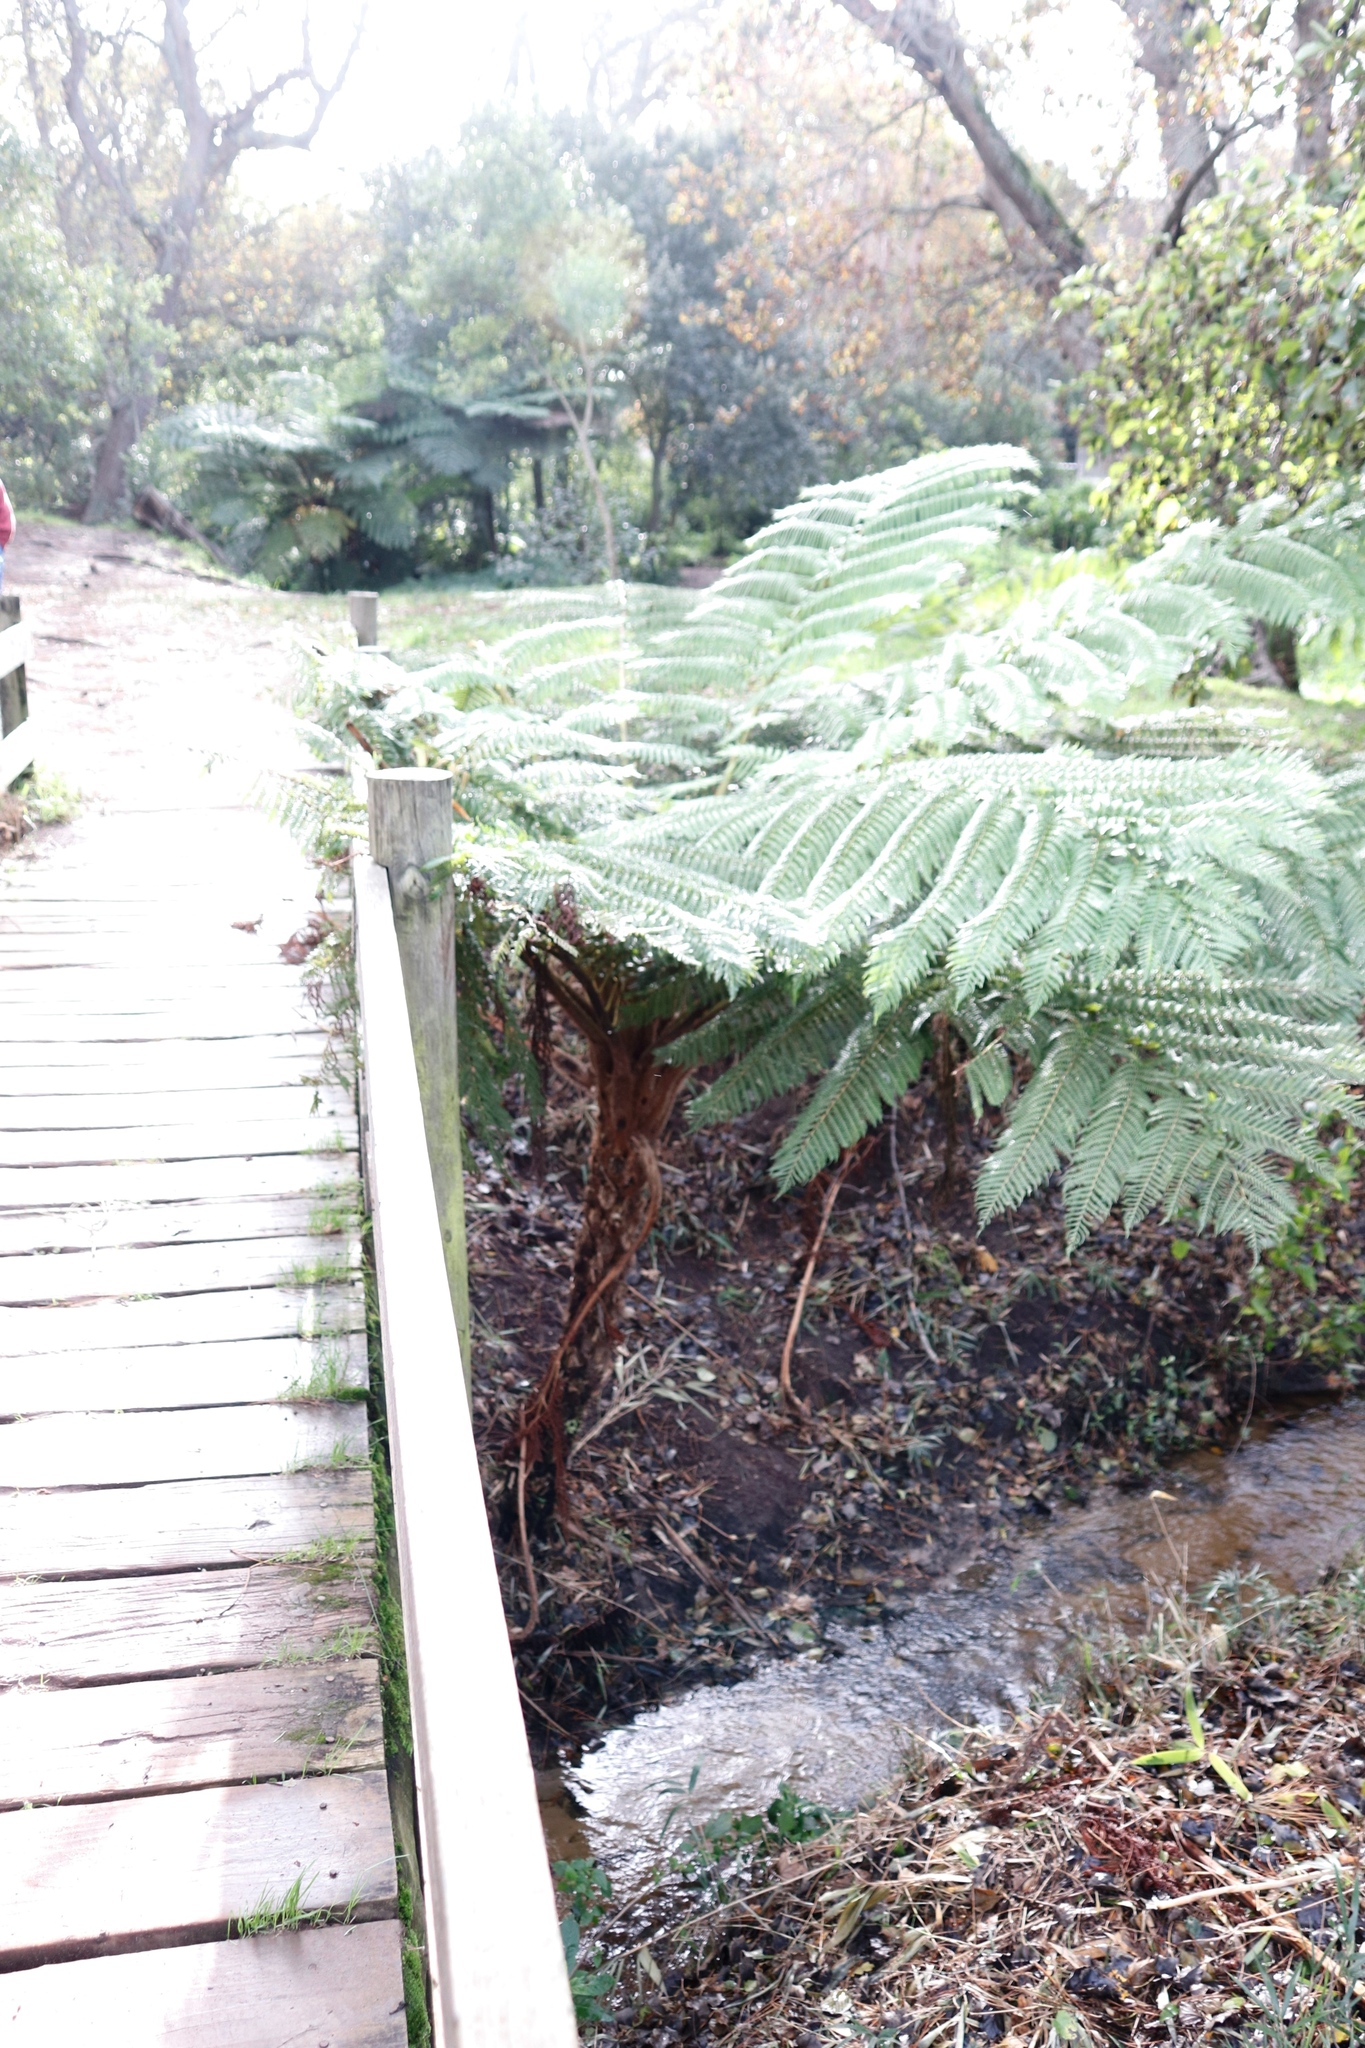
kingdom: Plantae
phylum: Tracheophyta
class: Polypodiopsida
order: Cyatheales
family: Cyatheaceae
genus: Sphaeropteris
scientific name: Sphaeropteris cooperi
